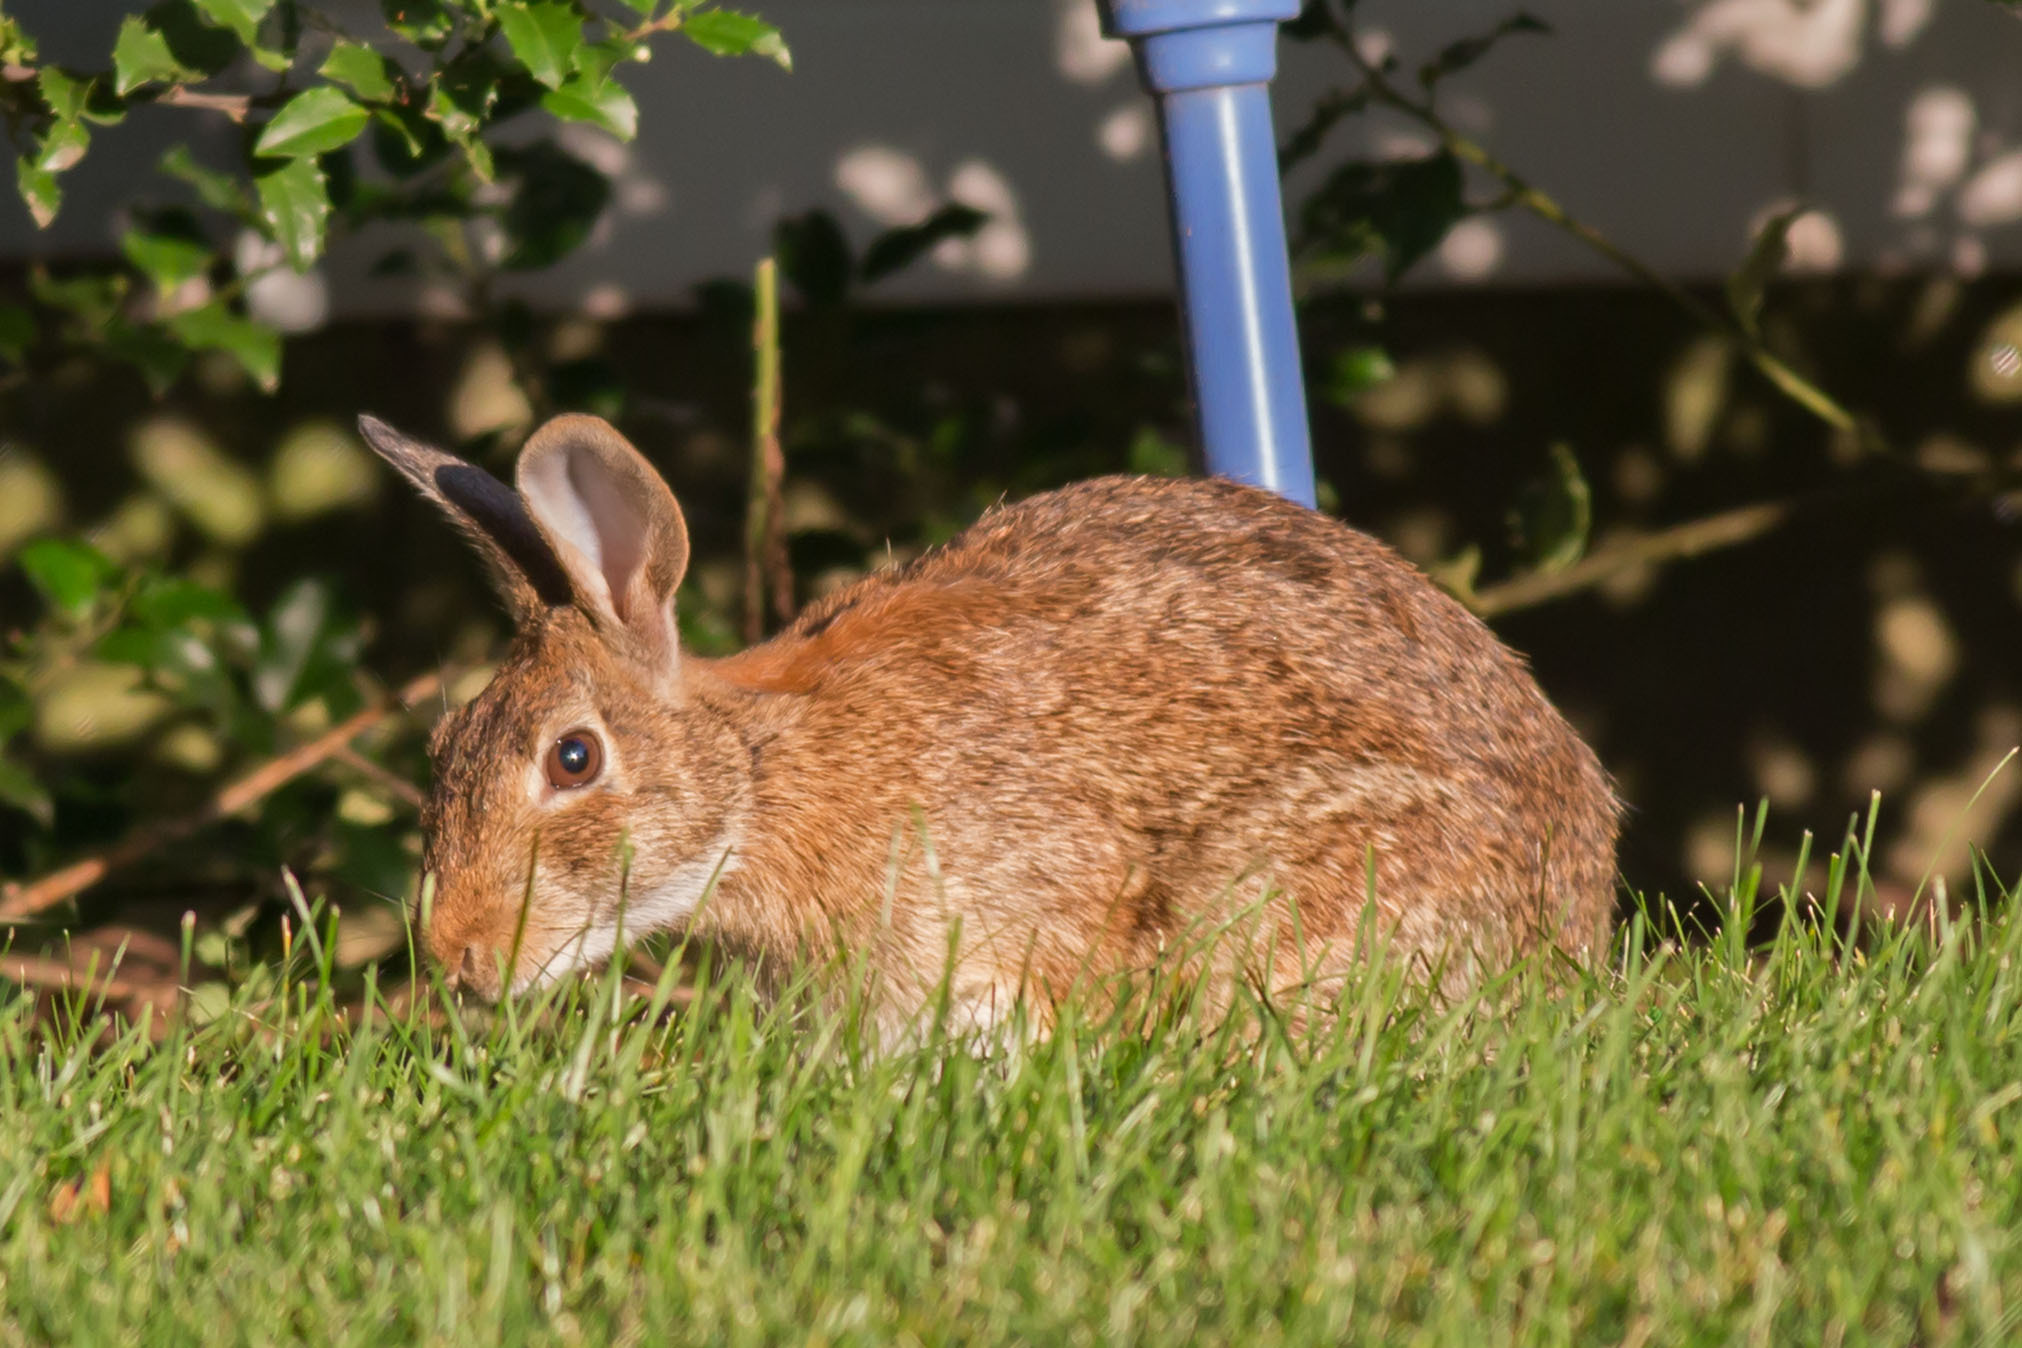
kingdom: Animalia
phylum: Chordata
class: Mammalia
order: Lagomorpha
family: Leporidae
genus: Sylvilagus
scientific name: Sylvilagus floridanus
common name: Eastern cottontail
